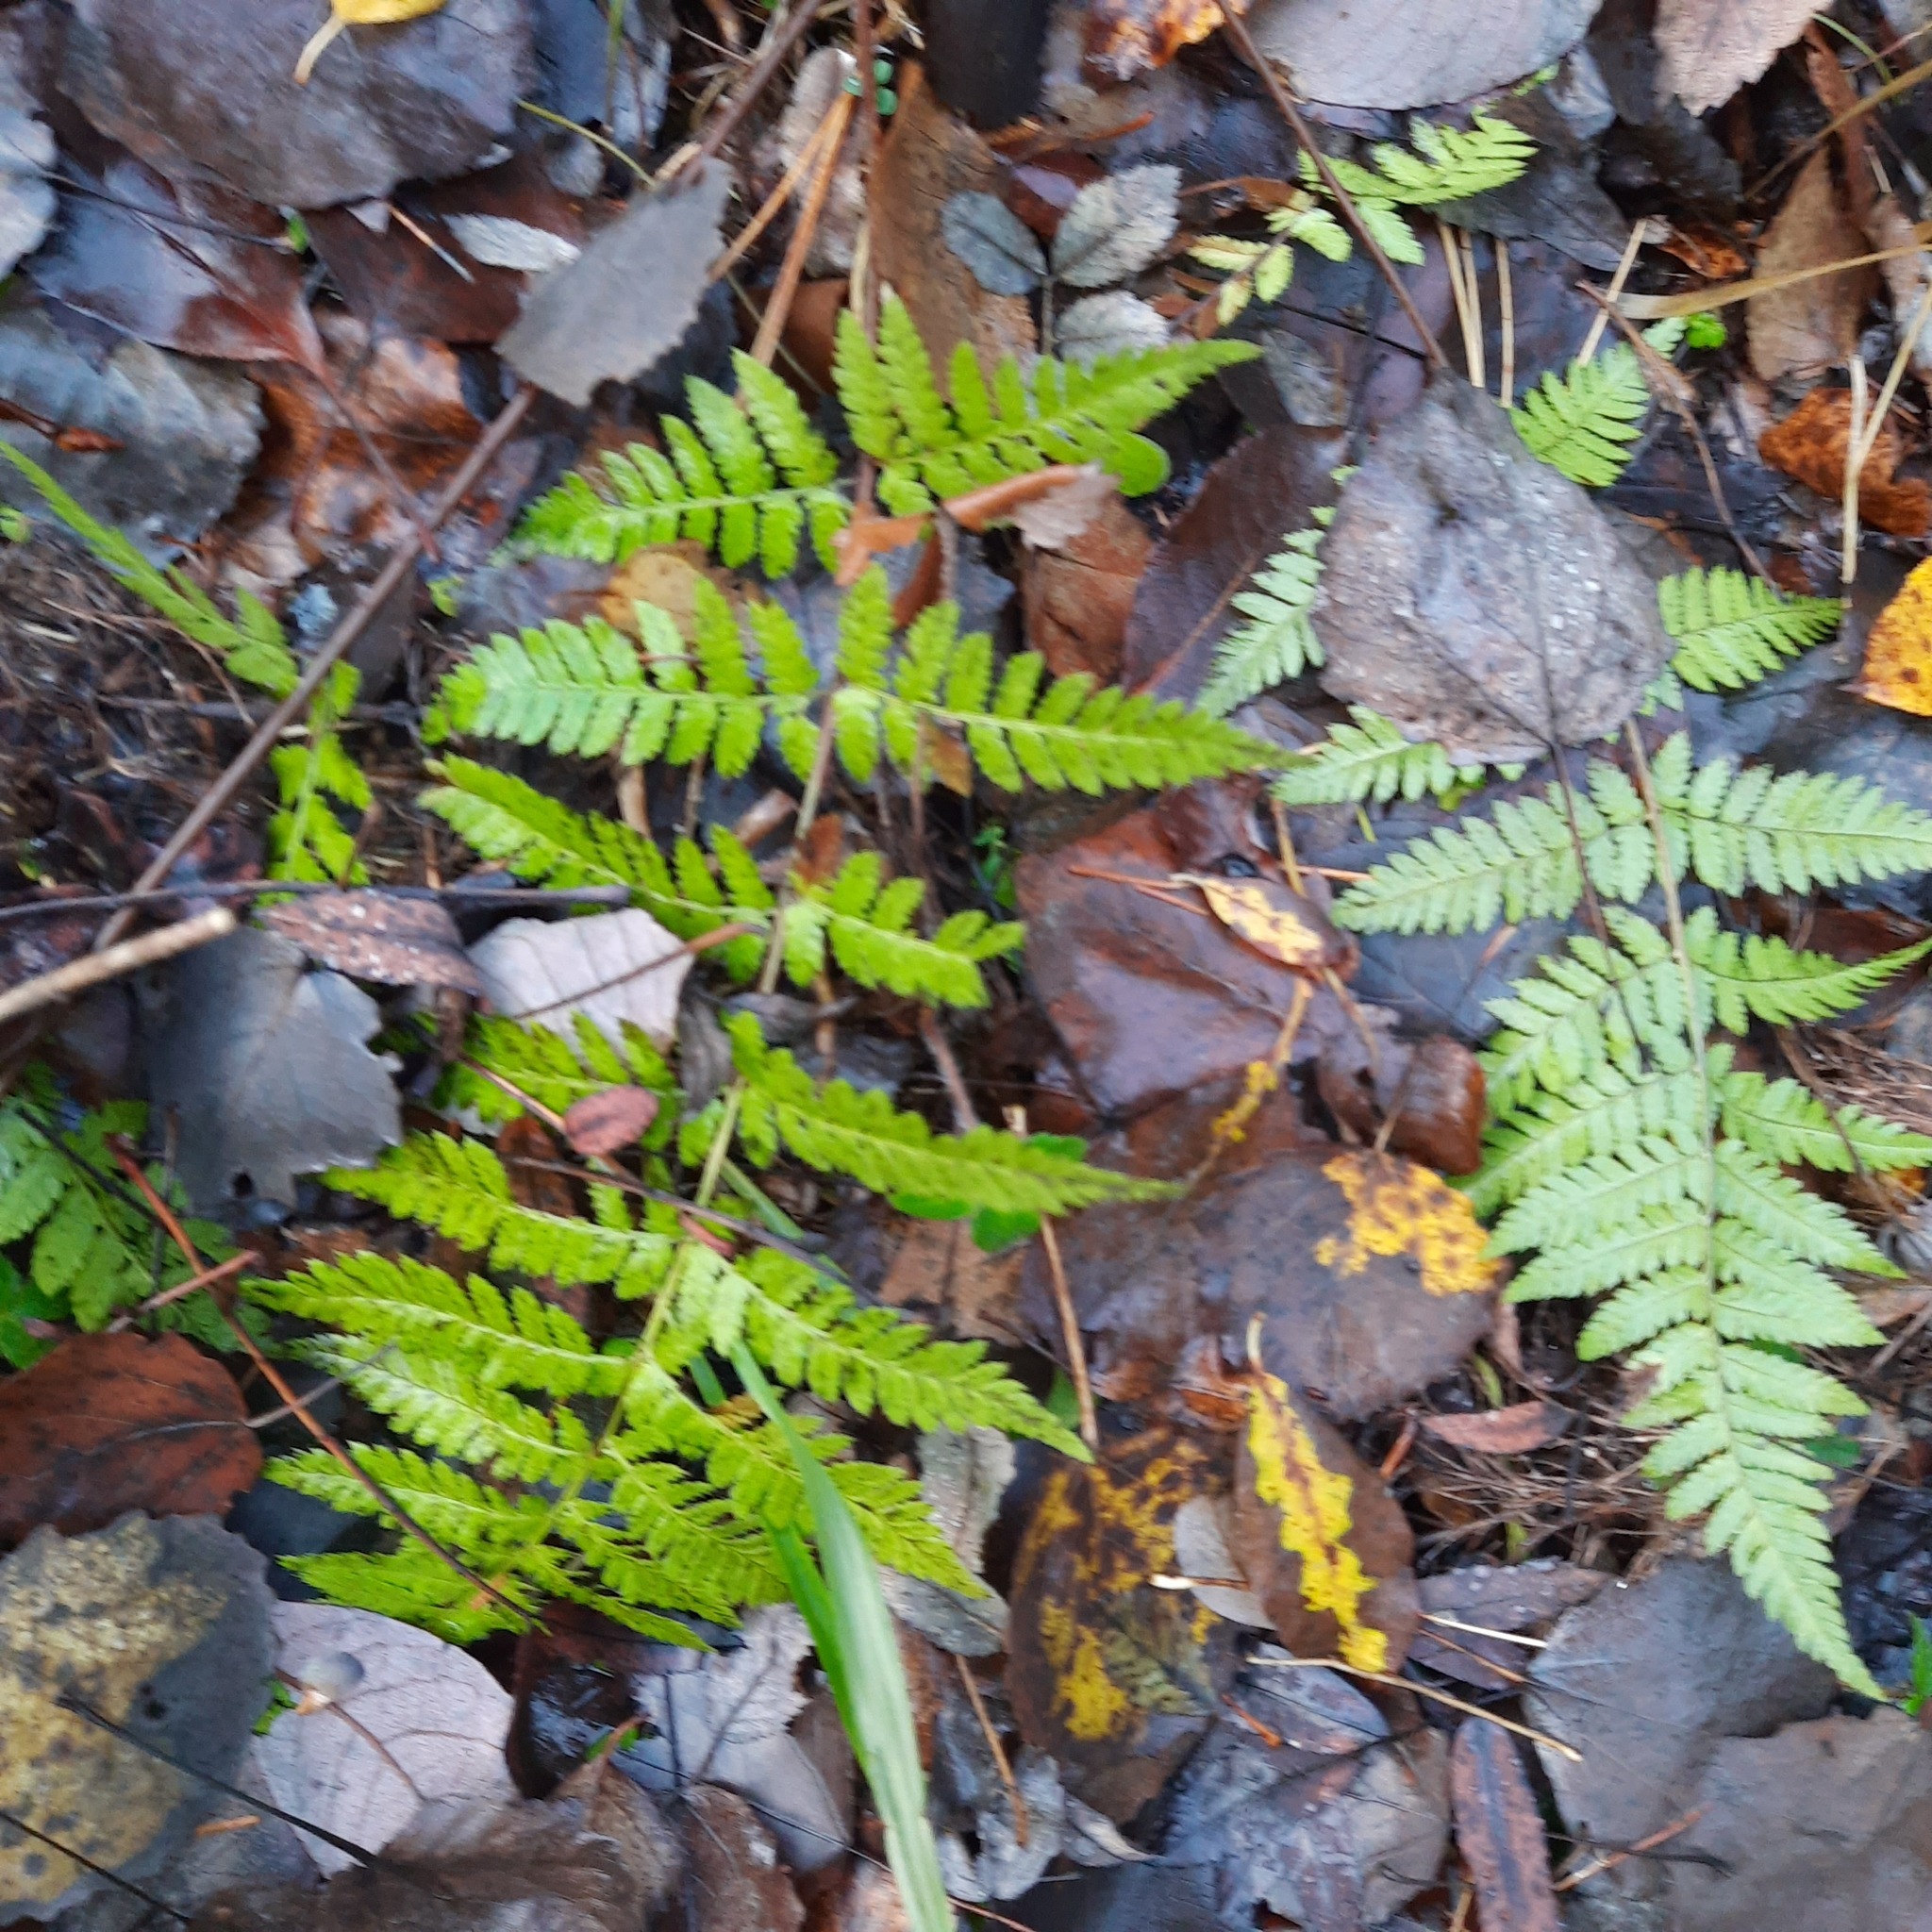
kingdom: Plantae
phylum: Tracheophyta
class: Polypodiopsida
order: Polypodiales
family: Dryopteridaceae
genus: Dryopteris
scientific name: Dryopteris carthusiana
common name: Narrow buckler-fern
